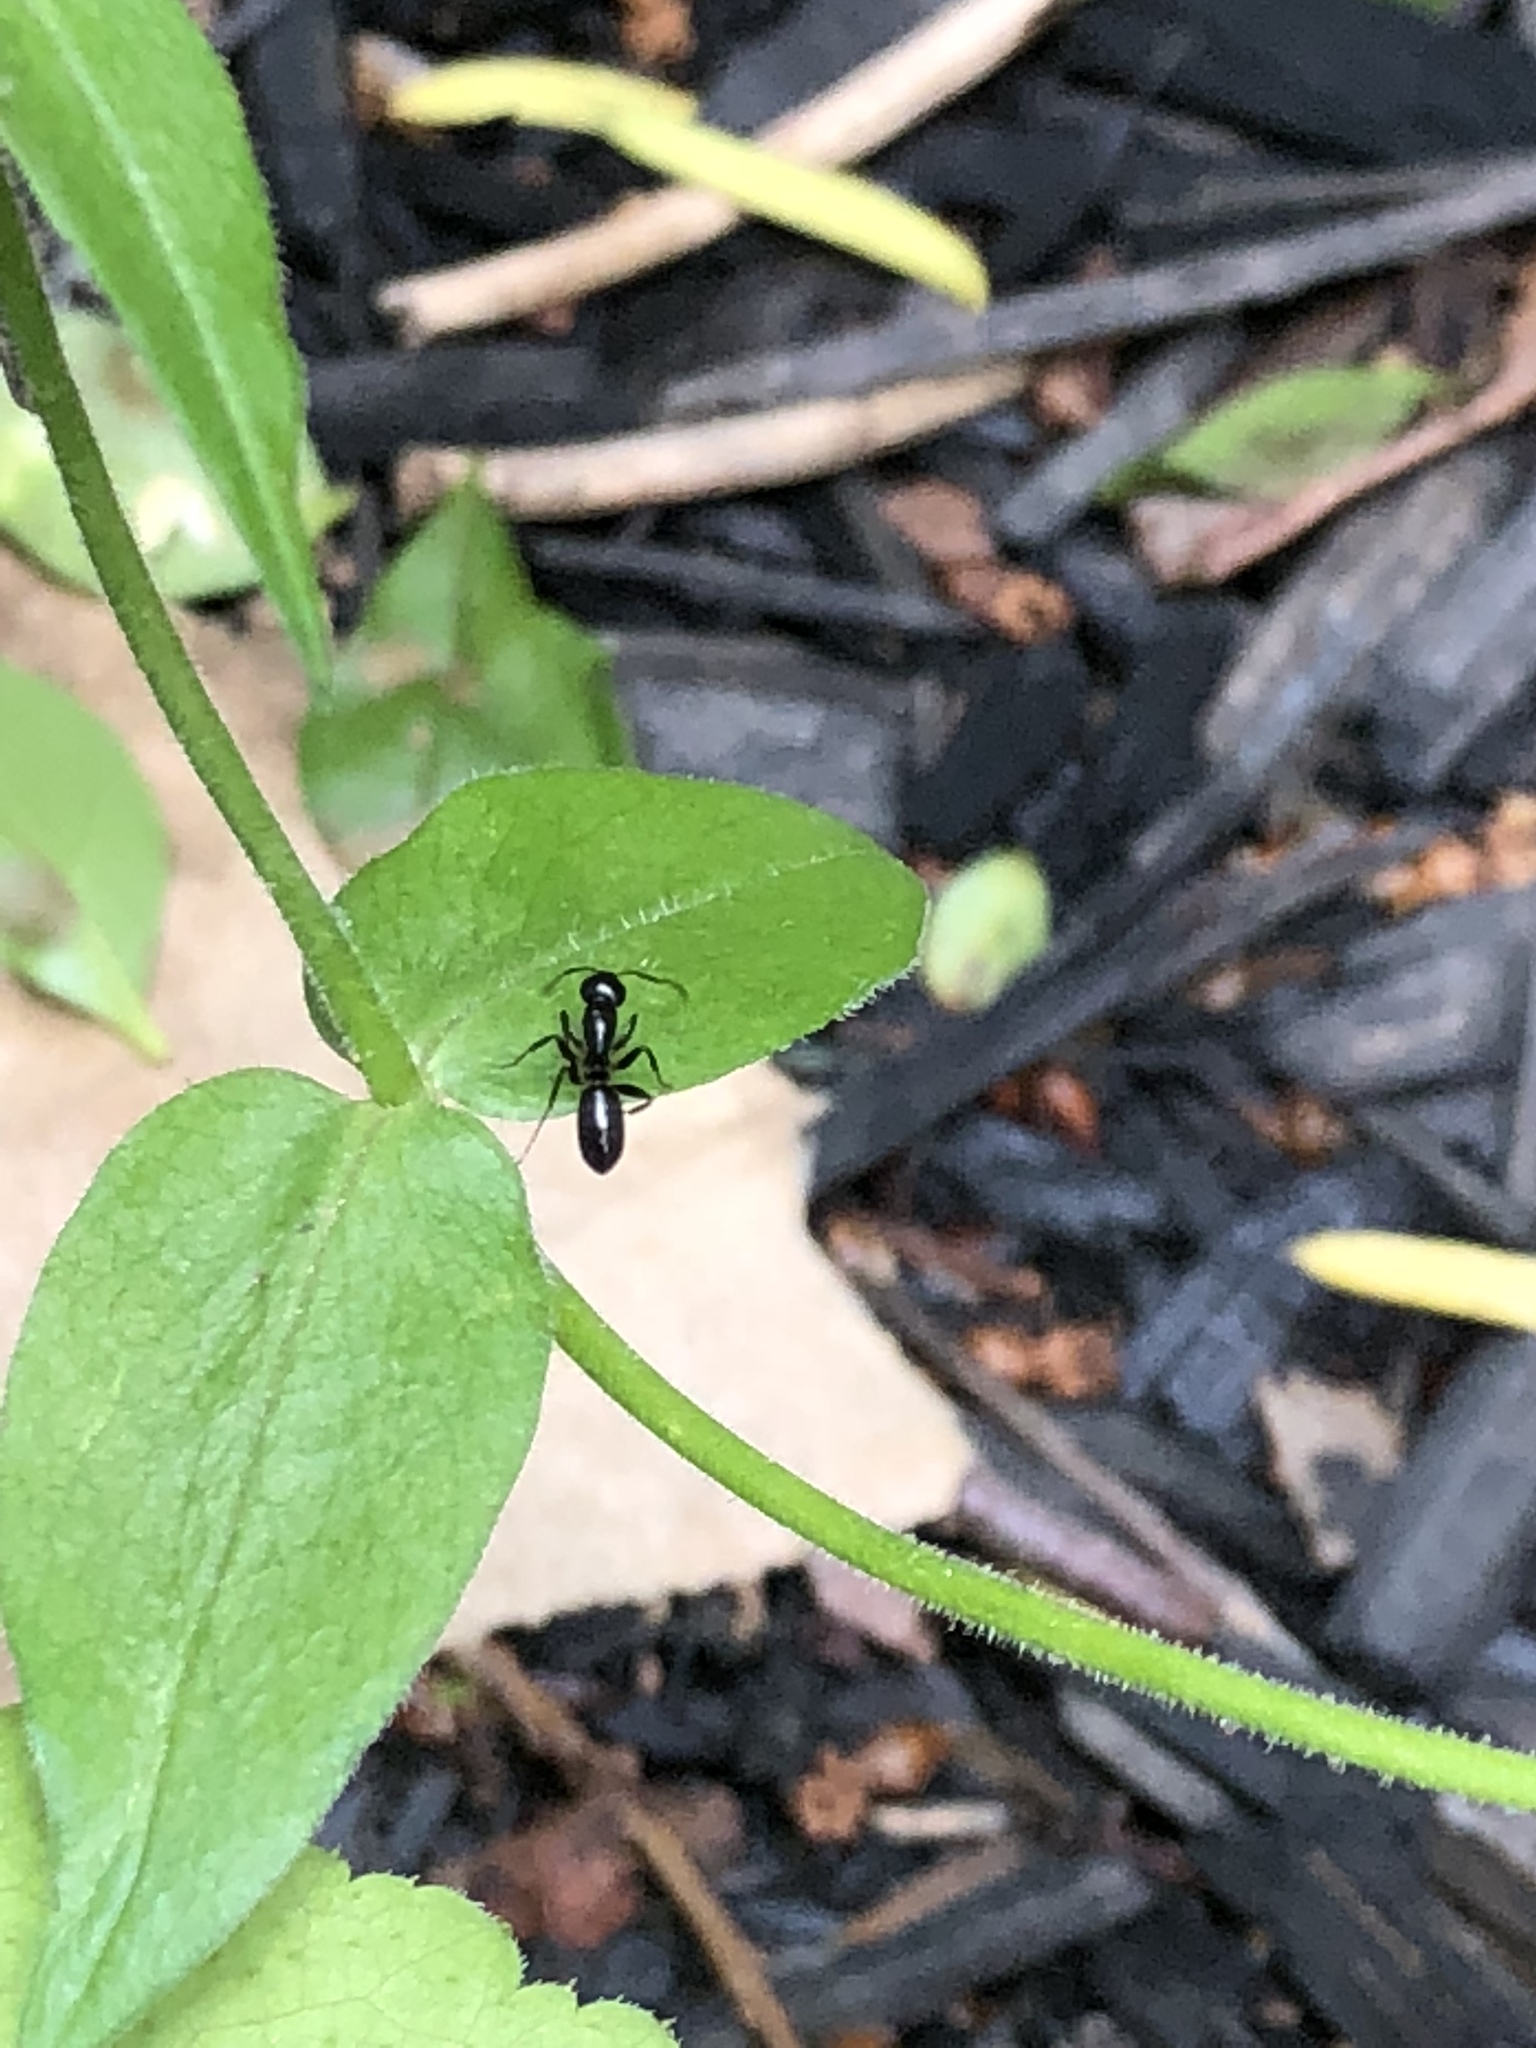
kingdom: Animalia
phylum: Arthropoda
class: Insecta
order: Hymenoptera
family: Formicidae
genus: Camponotus
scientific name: Camponotus pennsylvanicus
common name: Black carpenter ant
